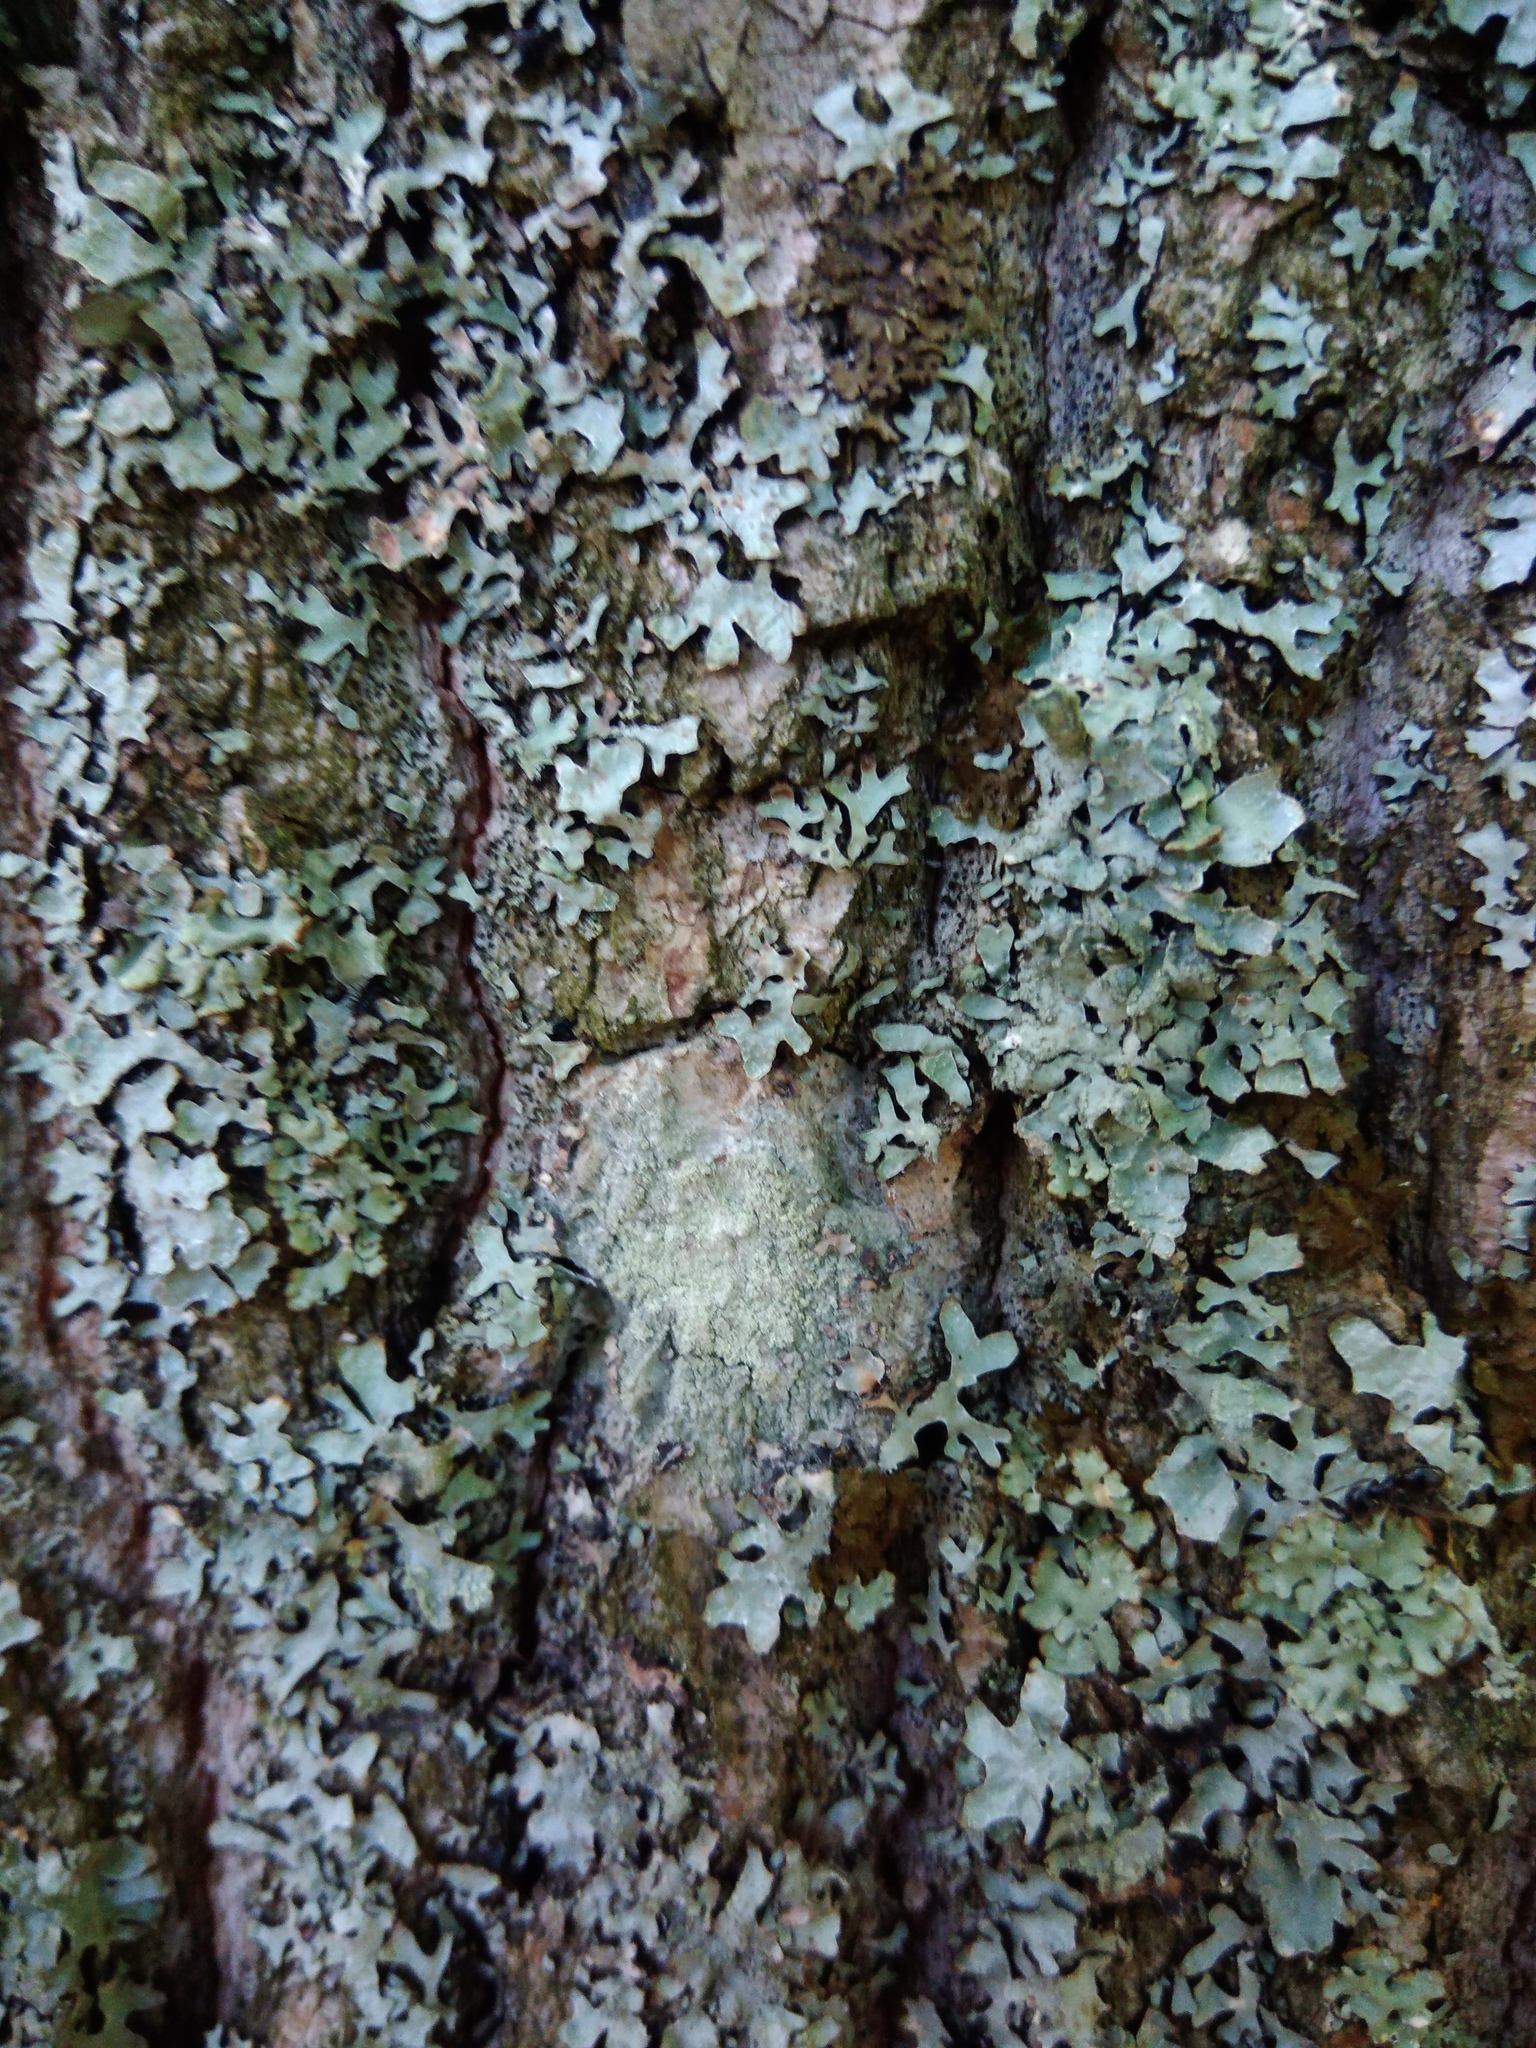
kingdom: Fungi
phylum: Ascomycota
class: Lecanoromycetes
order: Ostropales
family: Phlyctidaceae
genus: Phlyctis
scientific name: Phlyctis argena
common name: Whitewash lichen
